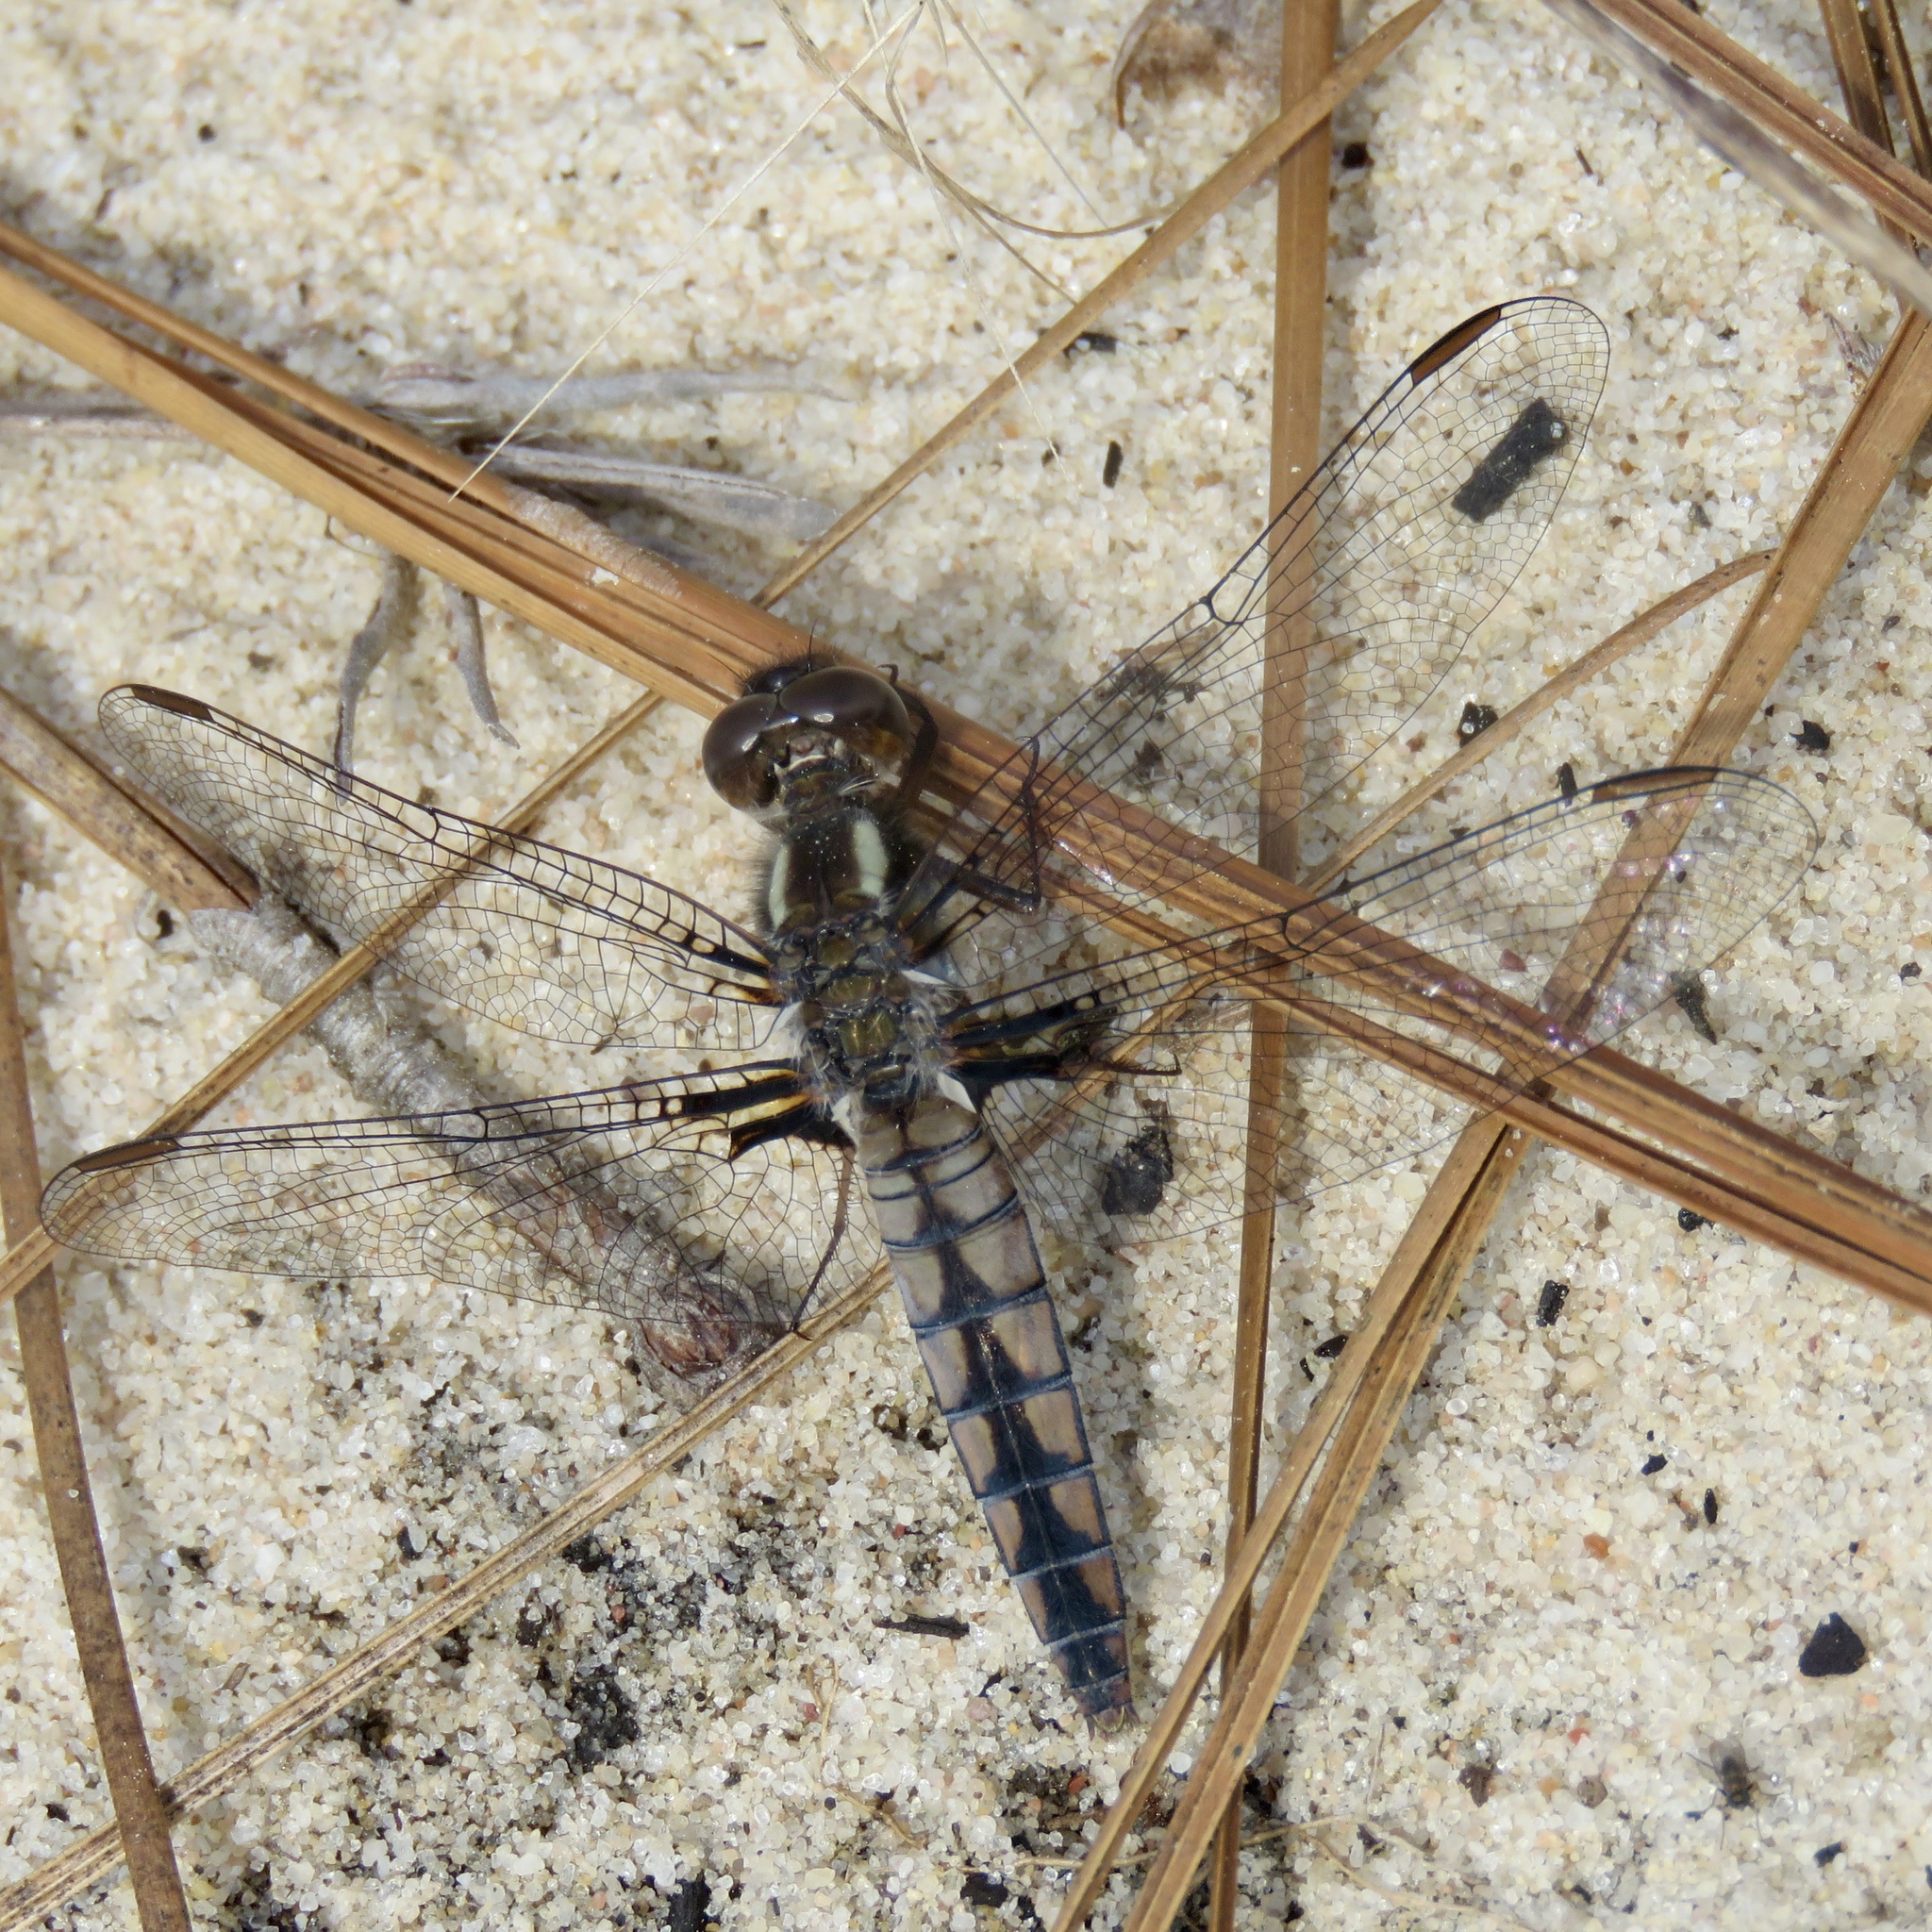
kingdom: Animalia
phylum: Arthropoda
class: Insecta
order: Odonata
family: Libellulidae
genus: Ladona
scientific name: Ladona deplanata
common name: Blue corporal
